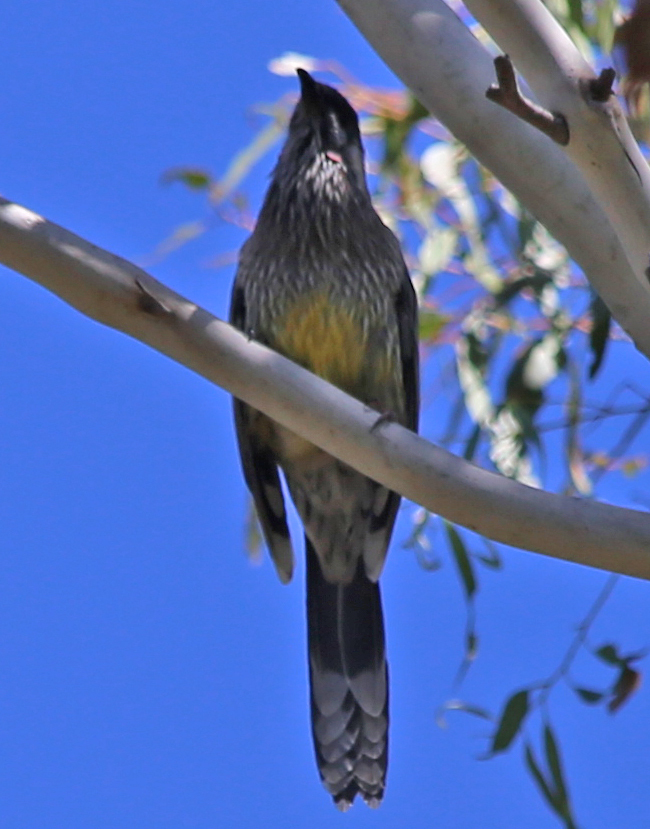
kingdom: Animalia
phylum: Chordata
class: Aves
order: Passeriformes
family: Meliphagidae
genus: Anthochaera
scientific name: Anthochaera carunculata
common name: Red wattlebird
